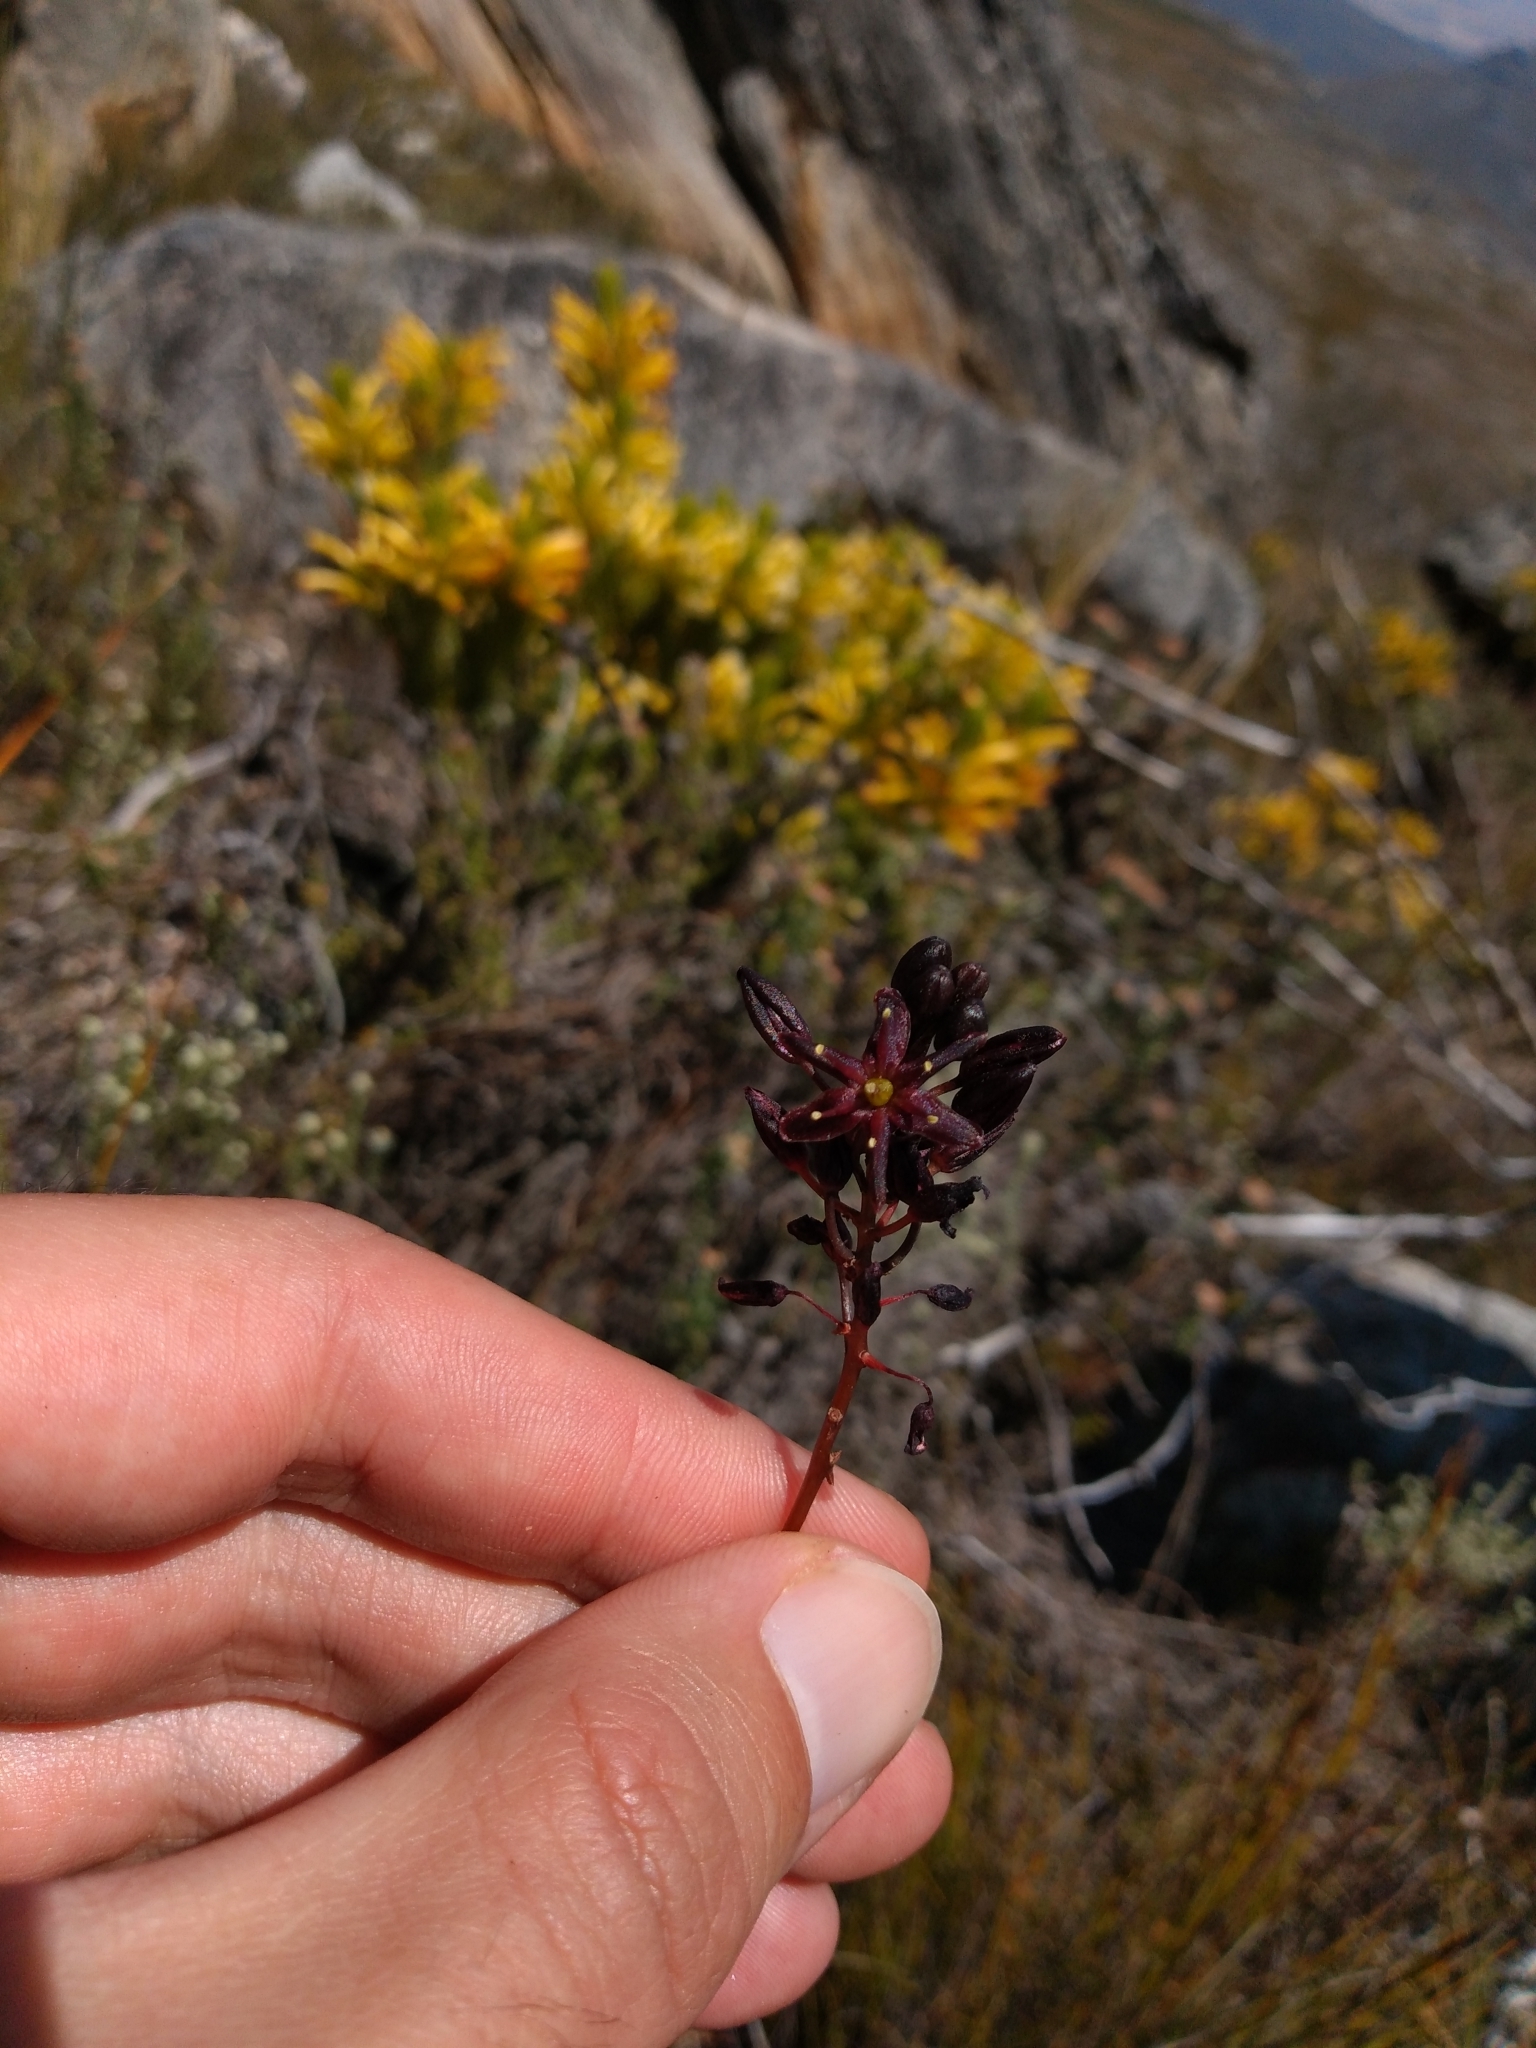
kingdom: Plantae
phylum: Tracheophyta
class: Liliopsida
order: Asparagales
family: Asparagaceae
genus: Drimia
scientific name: Drimia salteri
